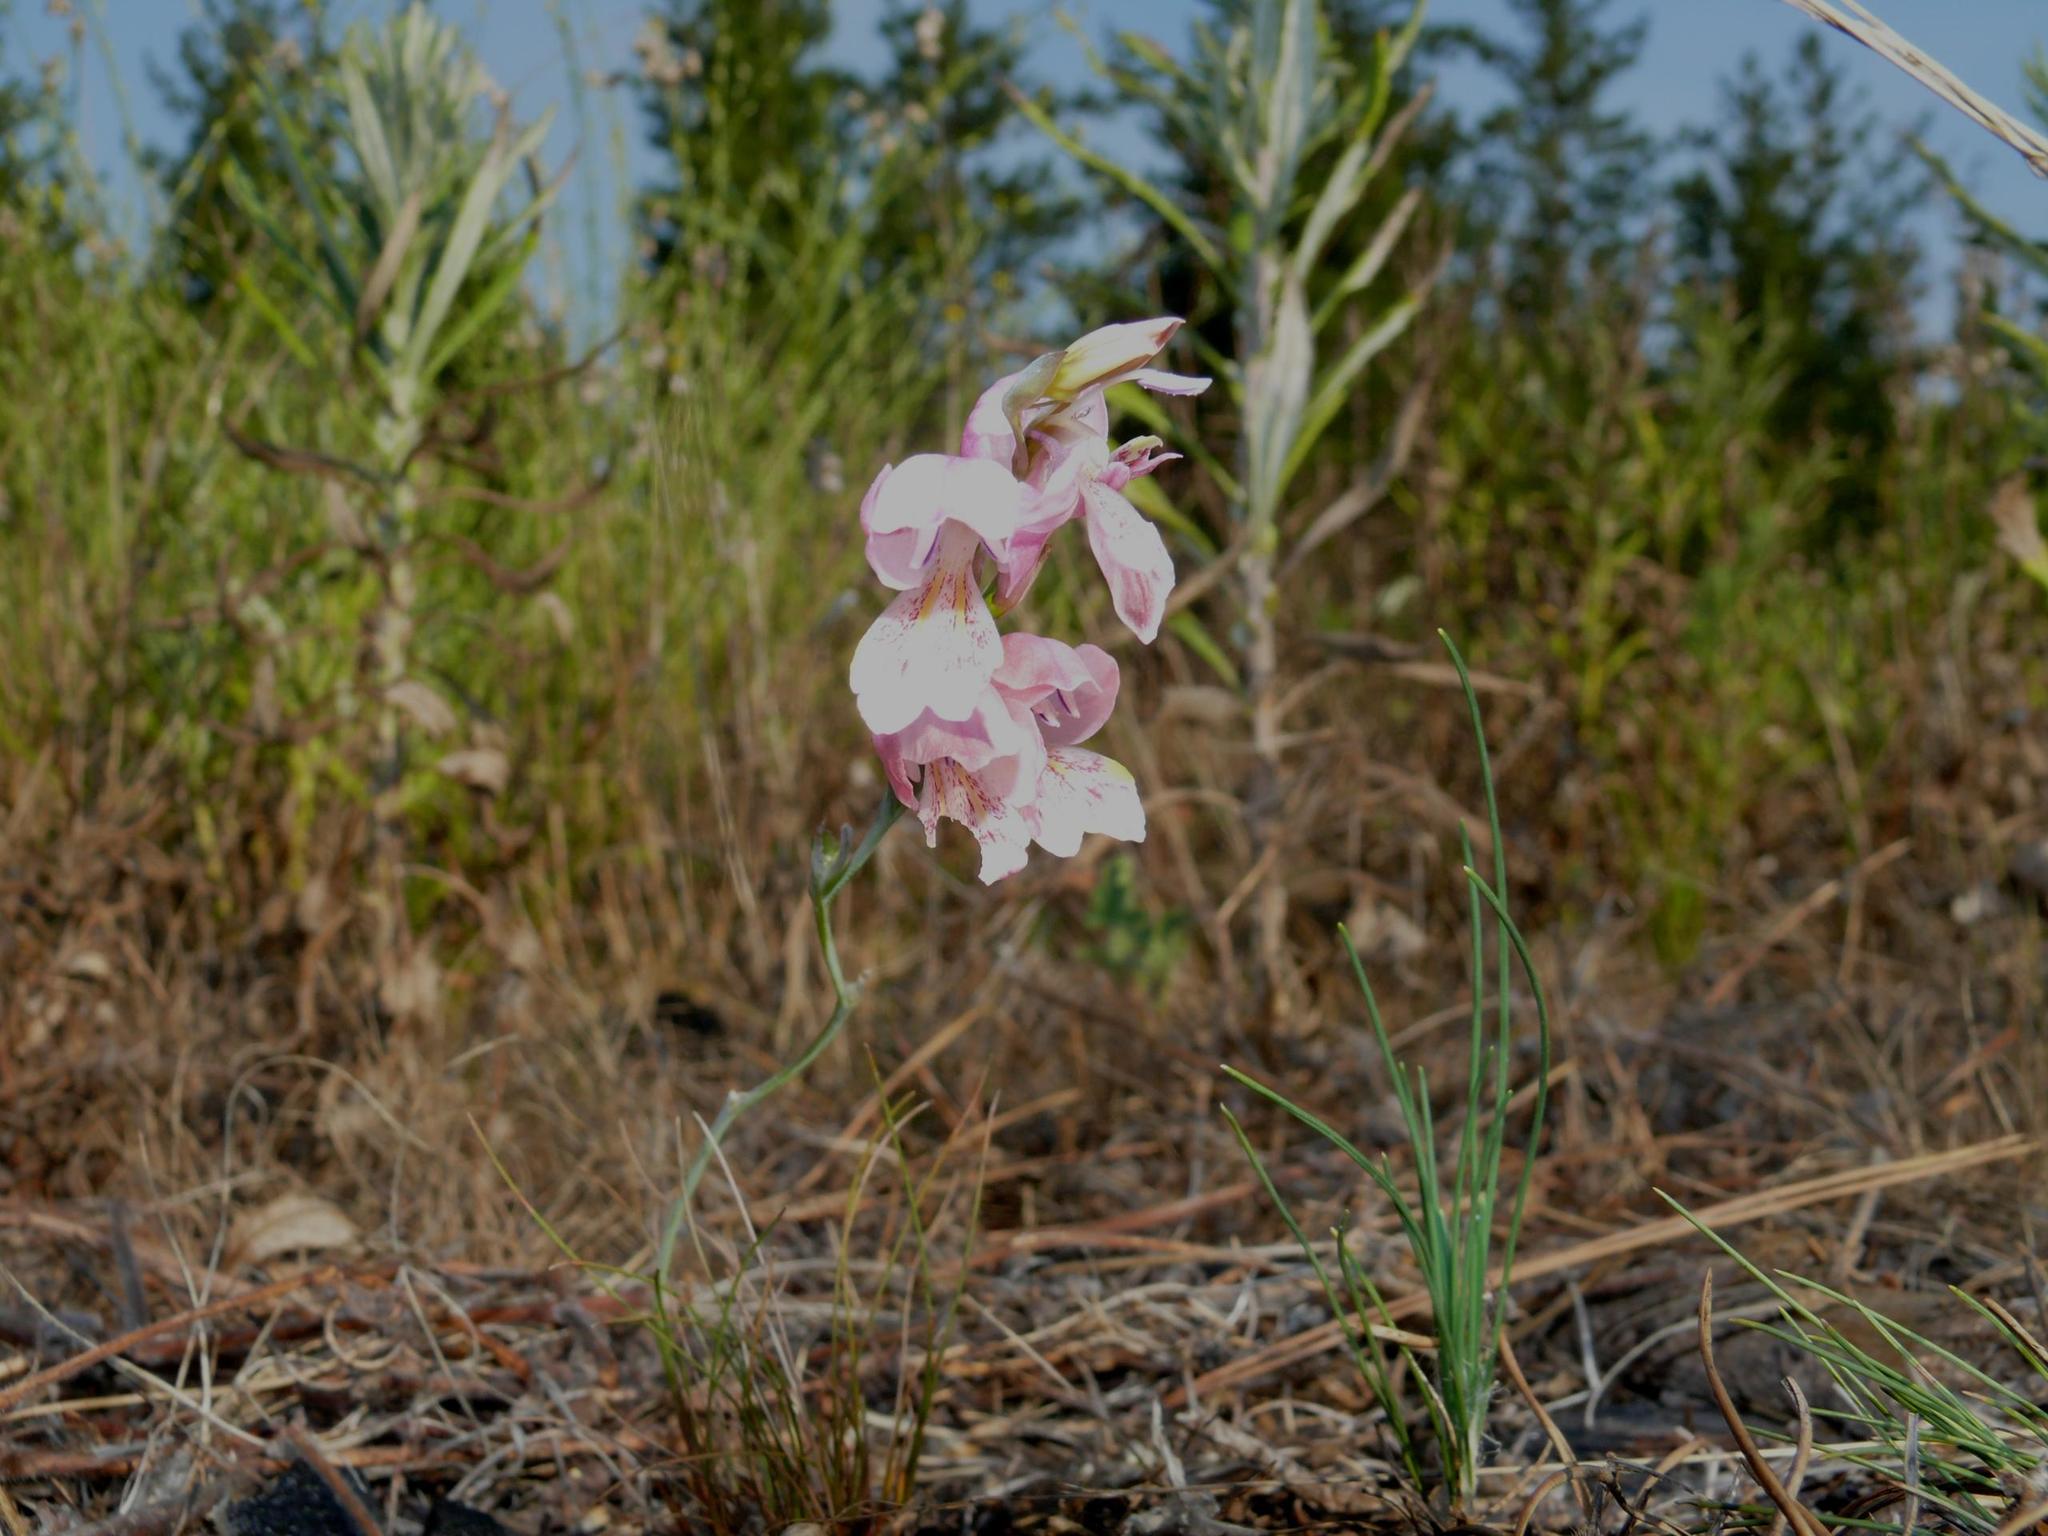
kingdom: Plantae
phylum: Tracheophyta
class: Liliopsida
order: Asparagales
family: Iridaceae
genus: Gladiolus
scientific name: Gladiolus brevifolius
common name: March pypie
